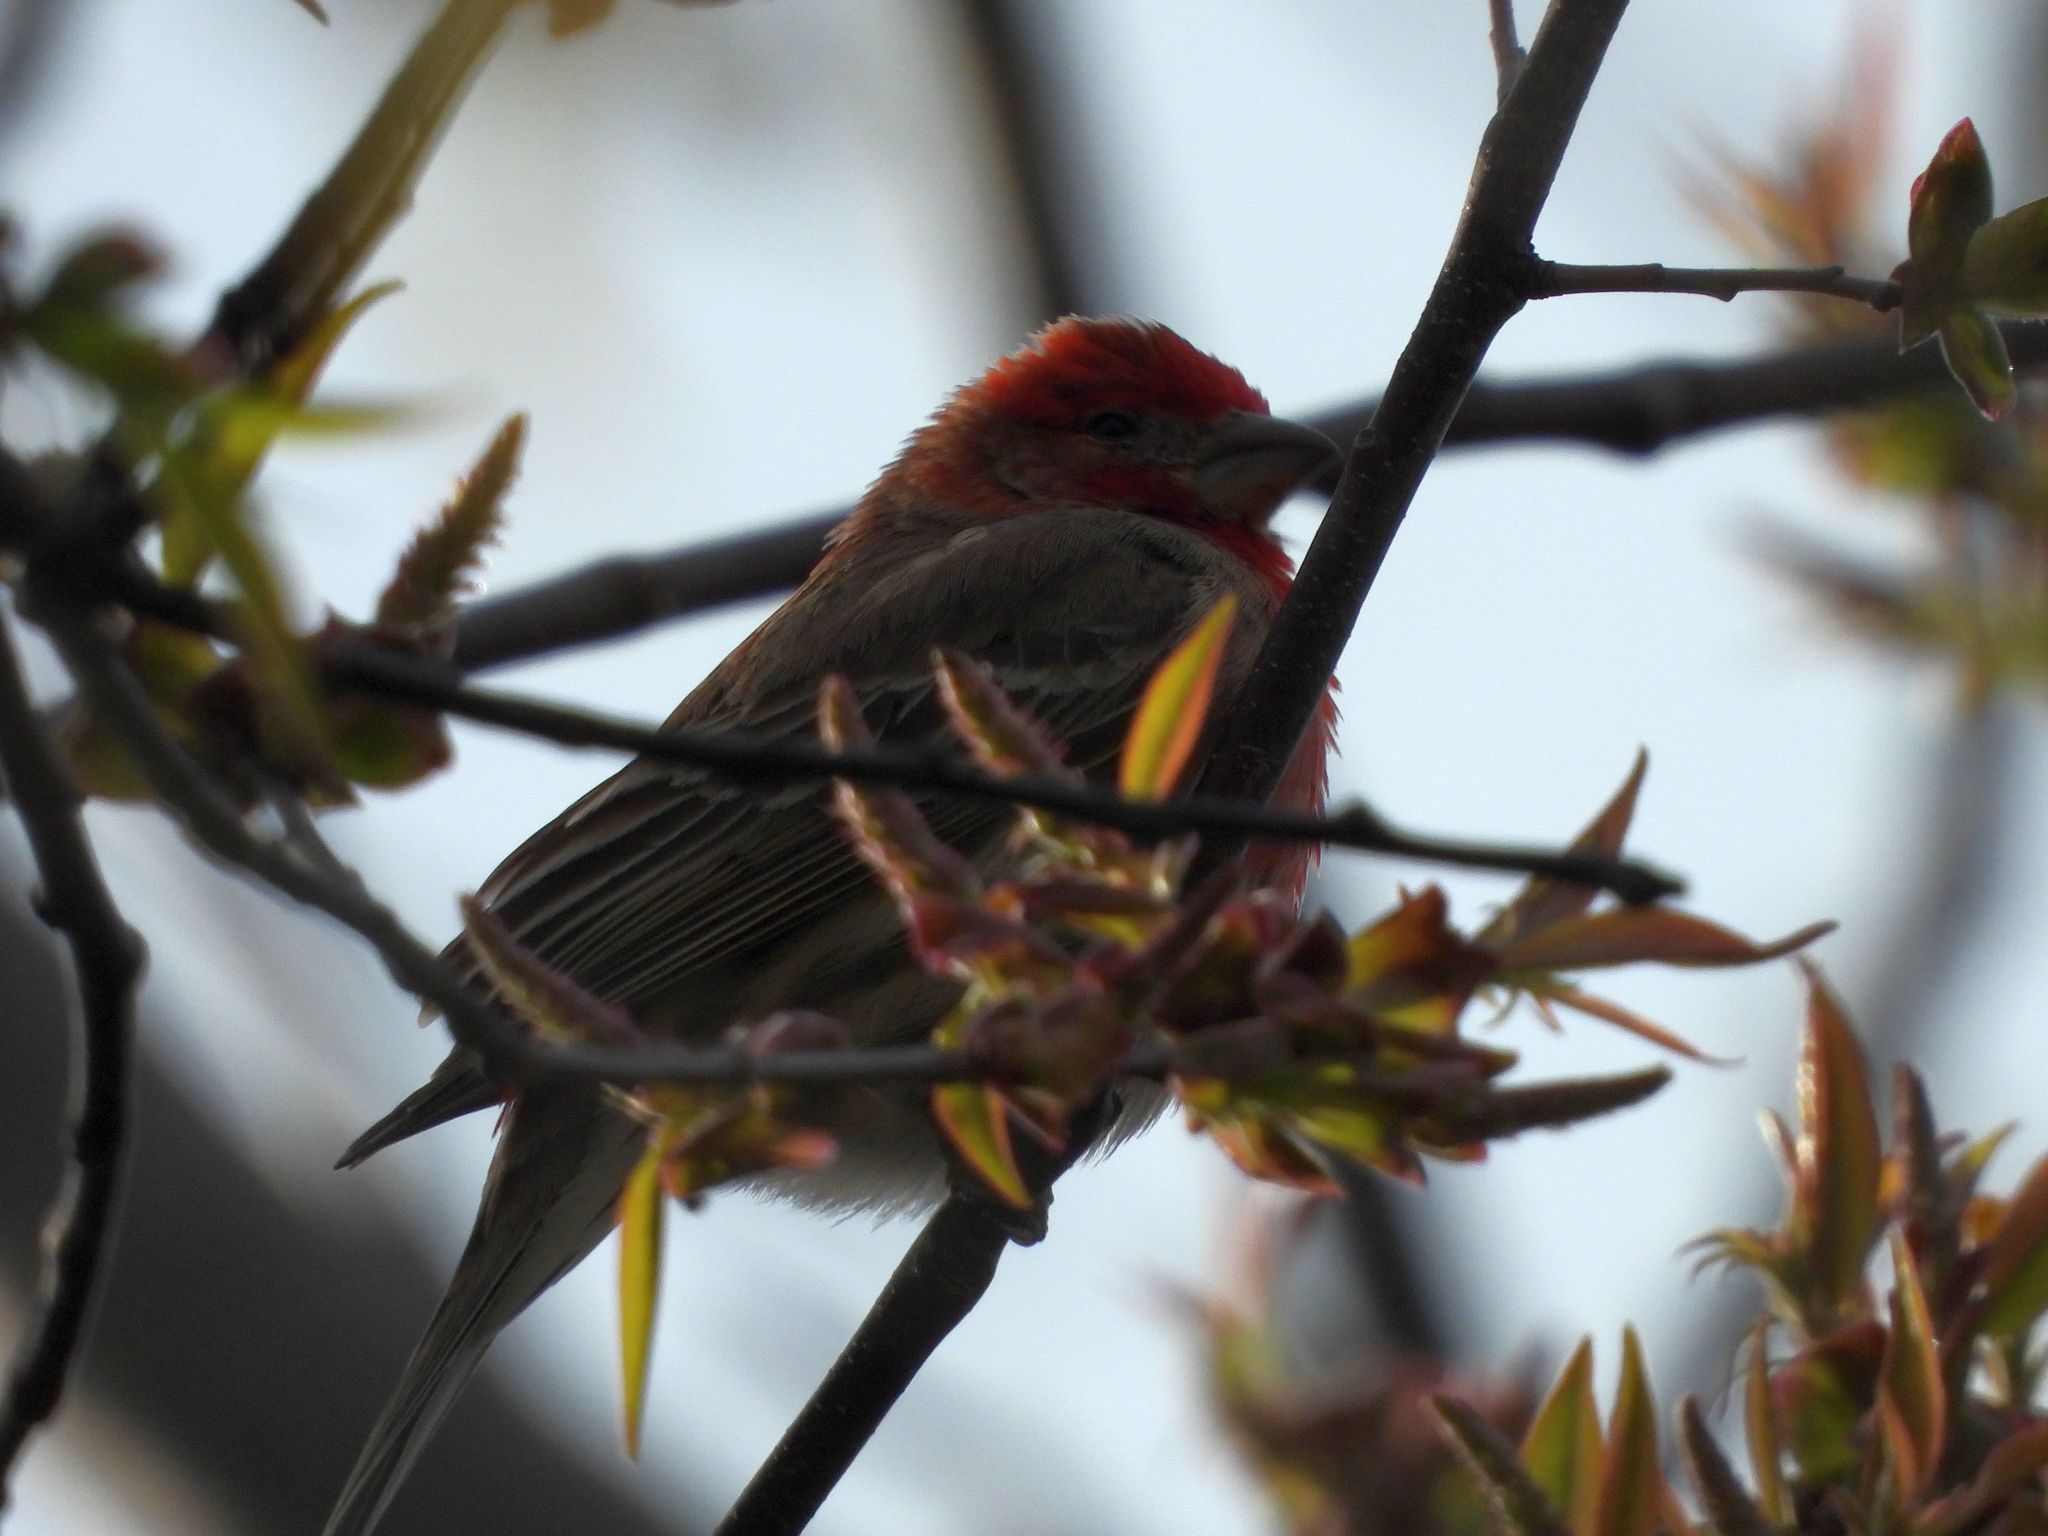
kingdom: Animalia
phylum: Chordata
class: Aves
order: Passeriformes
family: Fringillidae
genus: Haemorhous
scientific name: Haemorhous mexicanus
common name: House finch
